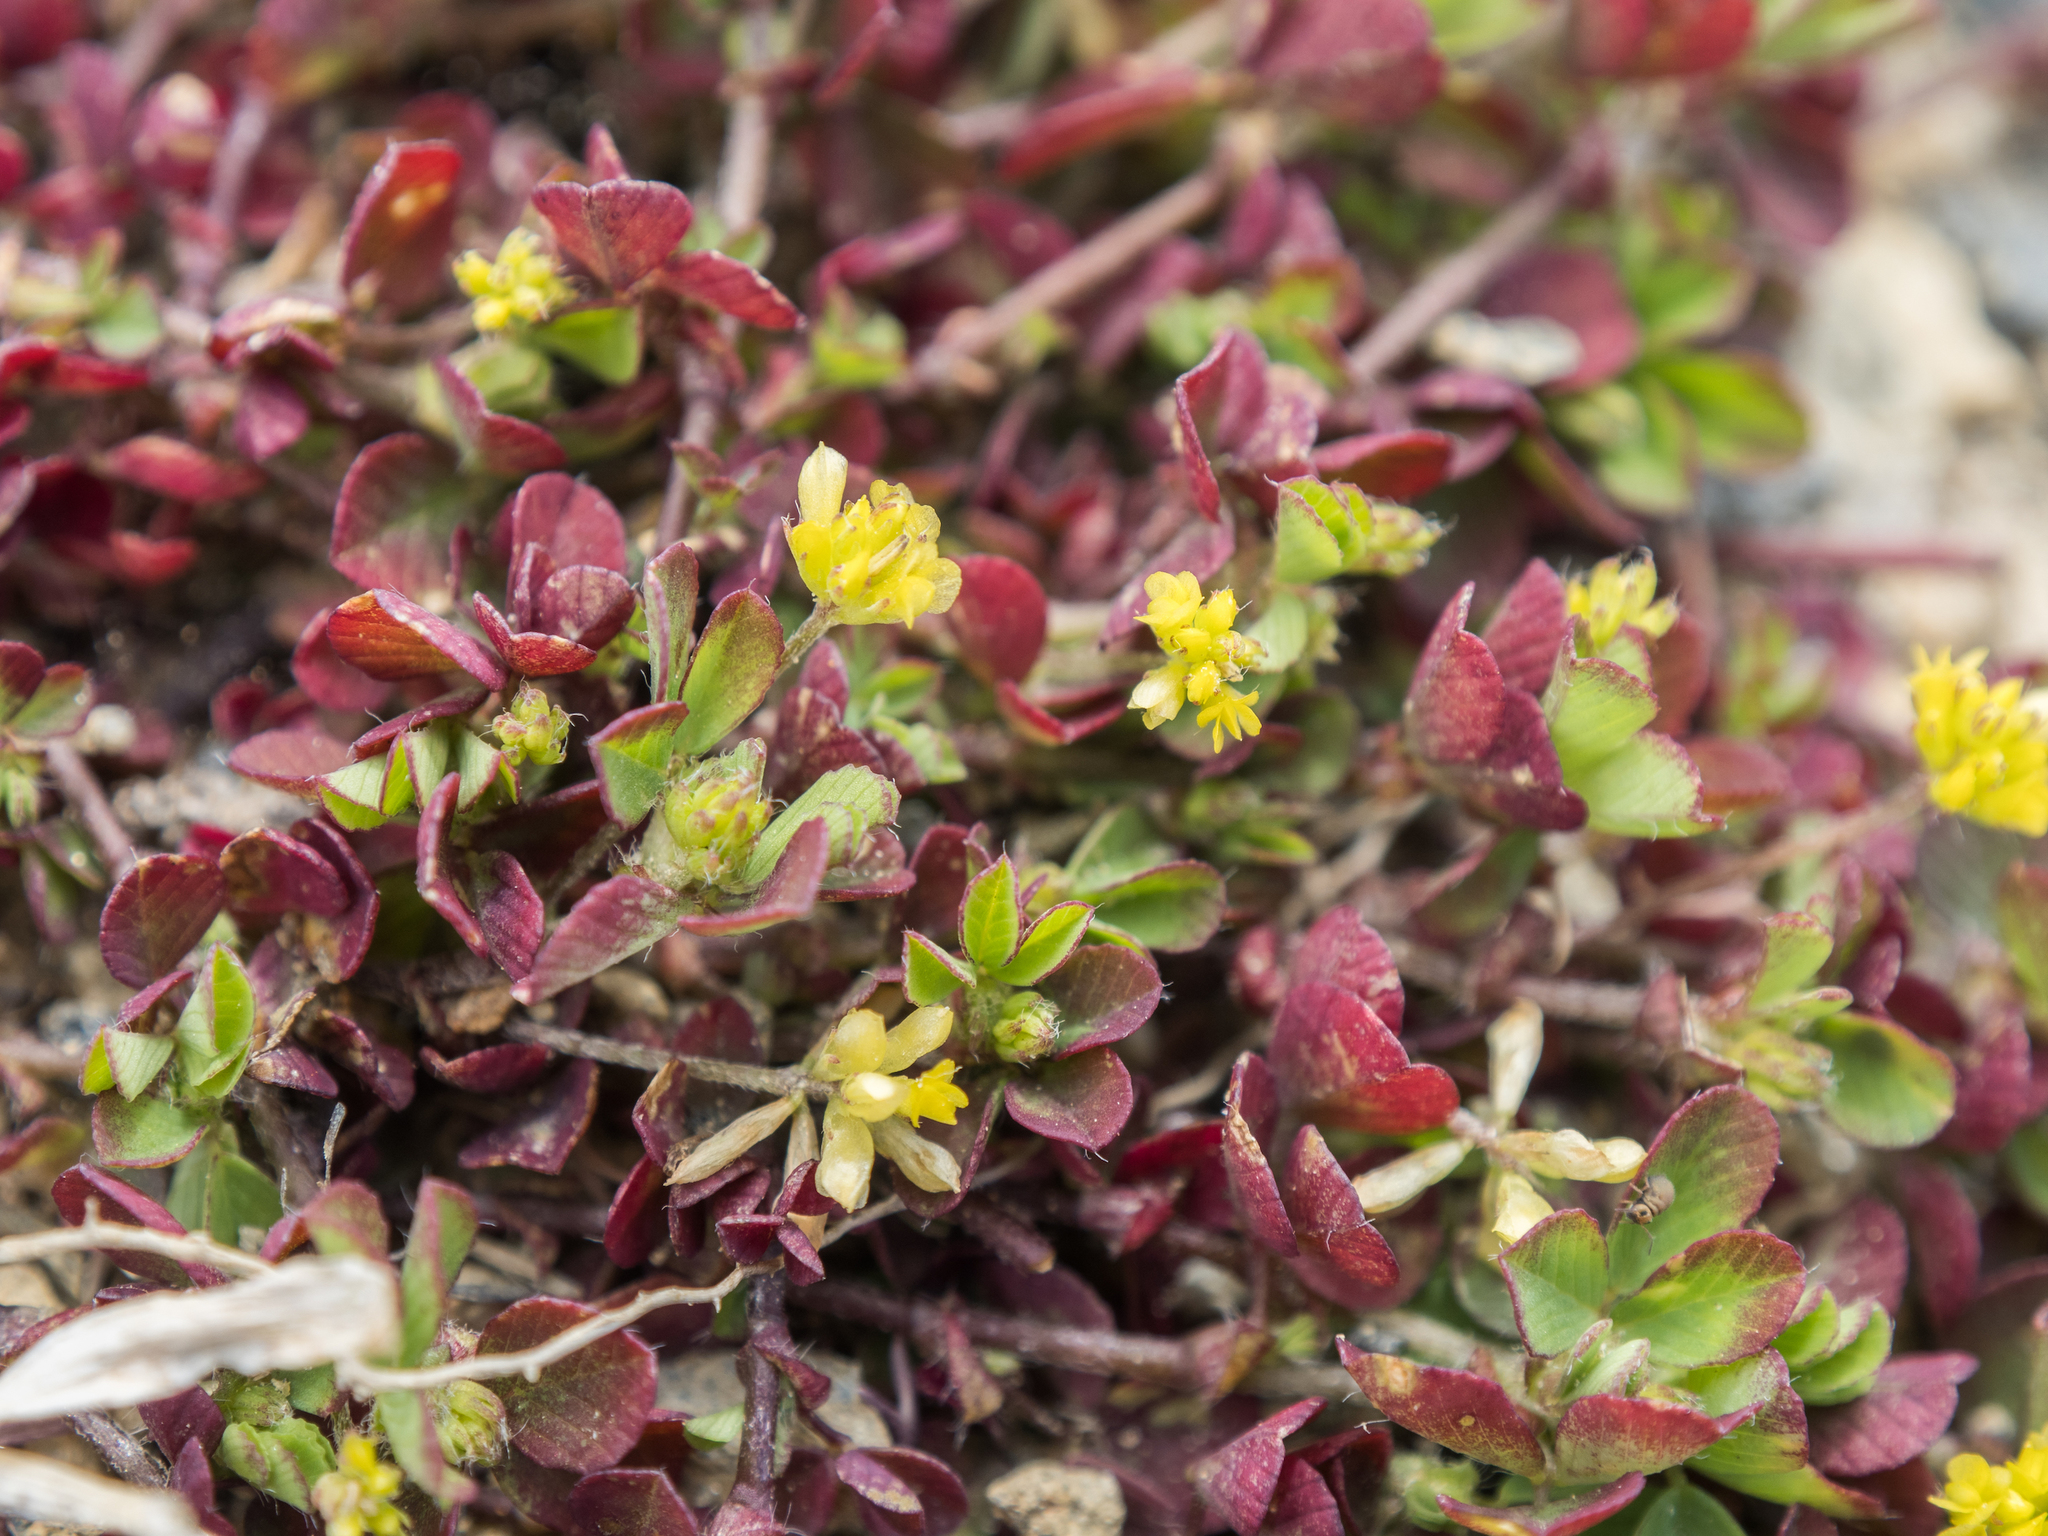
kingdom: Plantae
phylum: Tracheophyta
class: Magnoliopsida
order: Fabales
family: Fabaceae
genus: Trifolium
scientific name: Trifolium dubium
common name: Suckling clover
